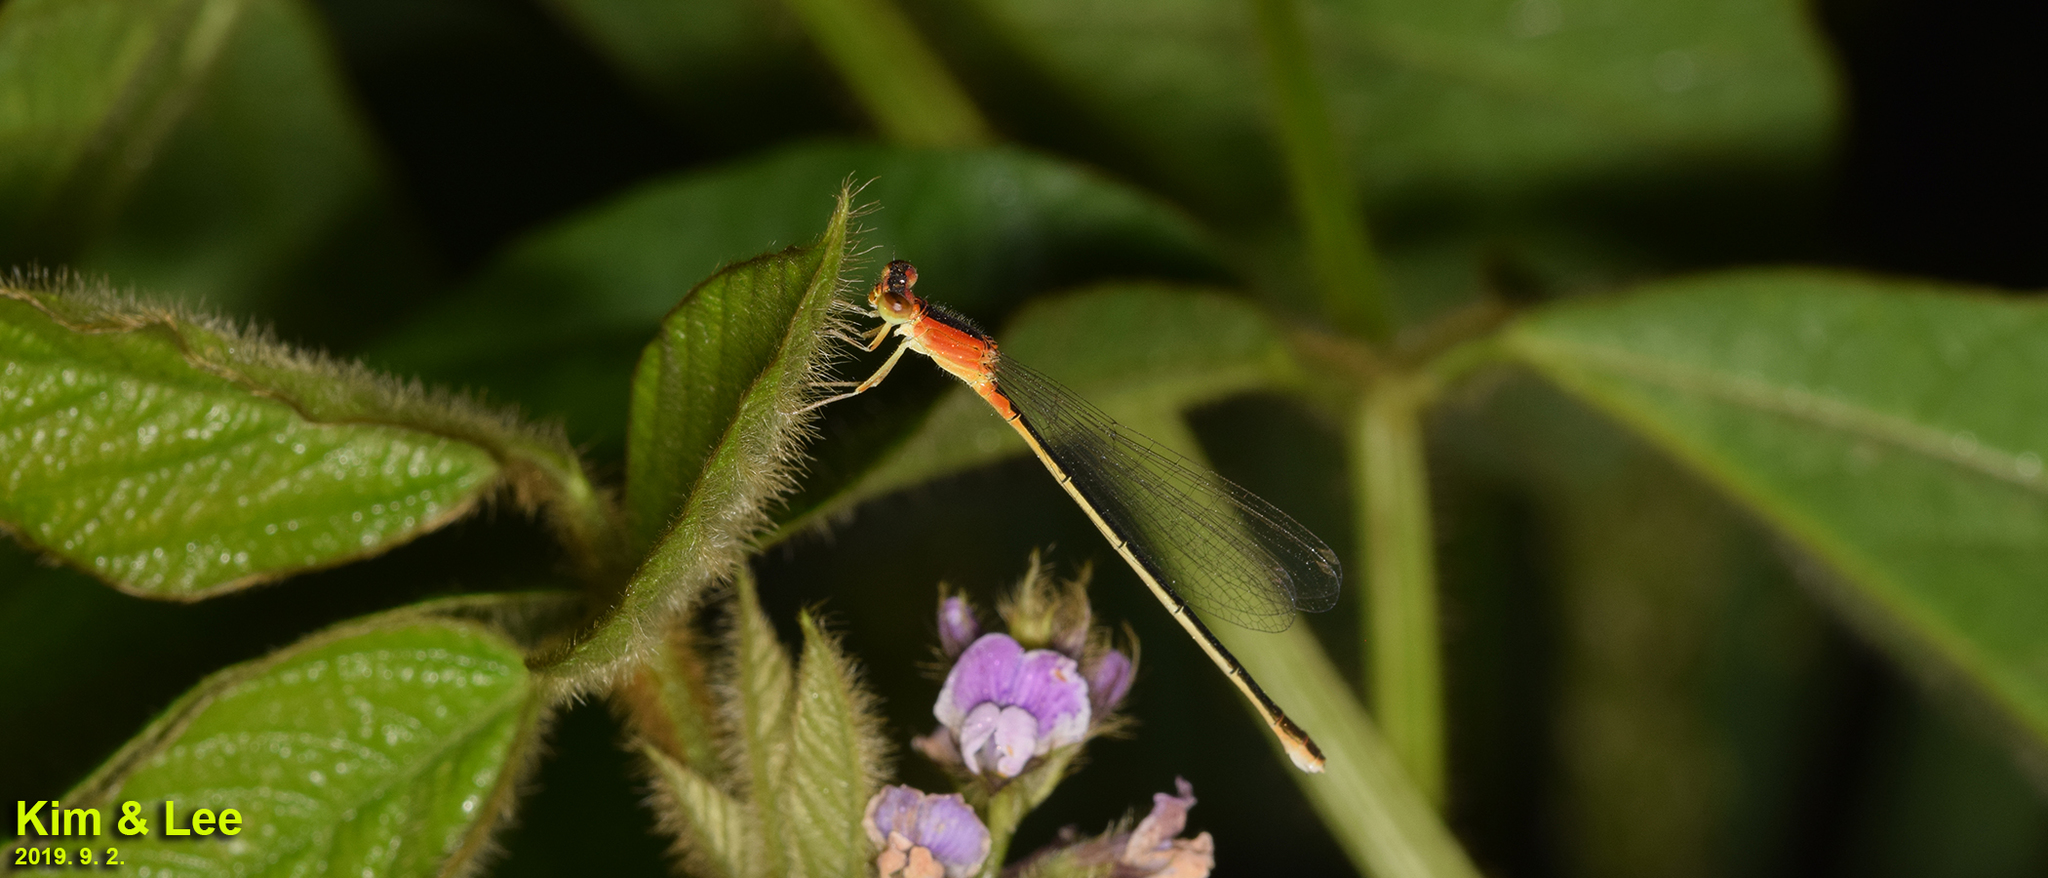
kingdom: Animalia
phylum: Arthropoda
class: Insecta
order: Odonata
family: Coenagrionidae
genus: Ischnura
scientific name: Ischnura asiatica
